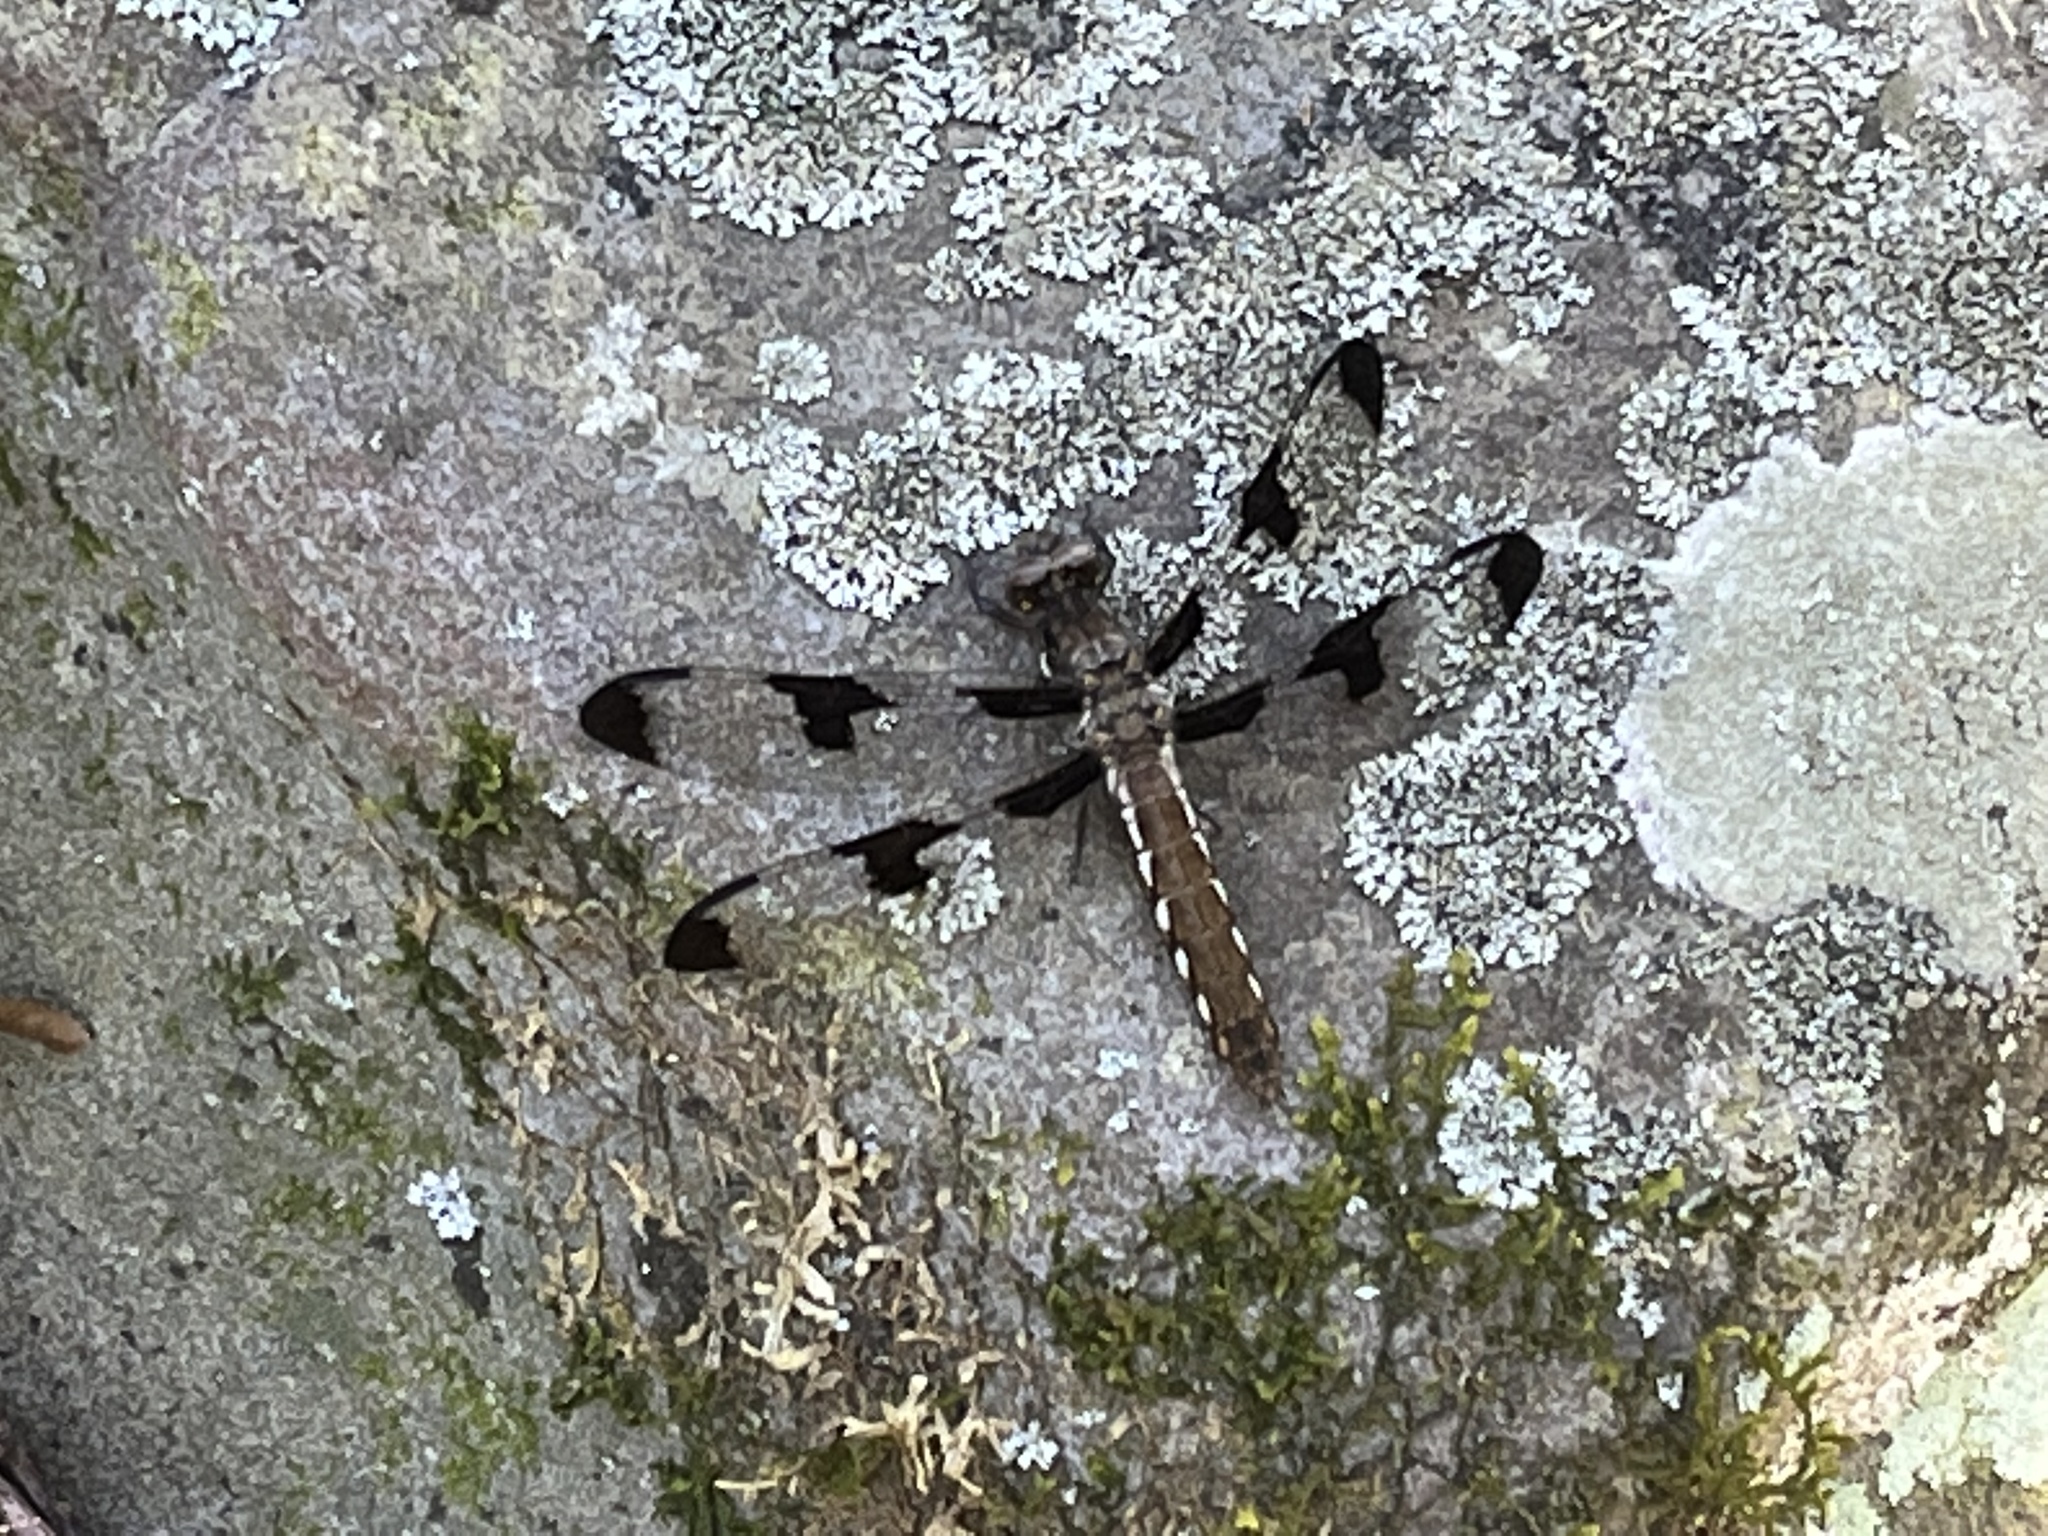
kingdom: Animalia
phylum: Arthropoda
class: Insecta
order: Odonata
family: Libellulidae
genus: Plathemis
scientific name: Plathemis lydia
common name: Common whitetail
